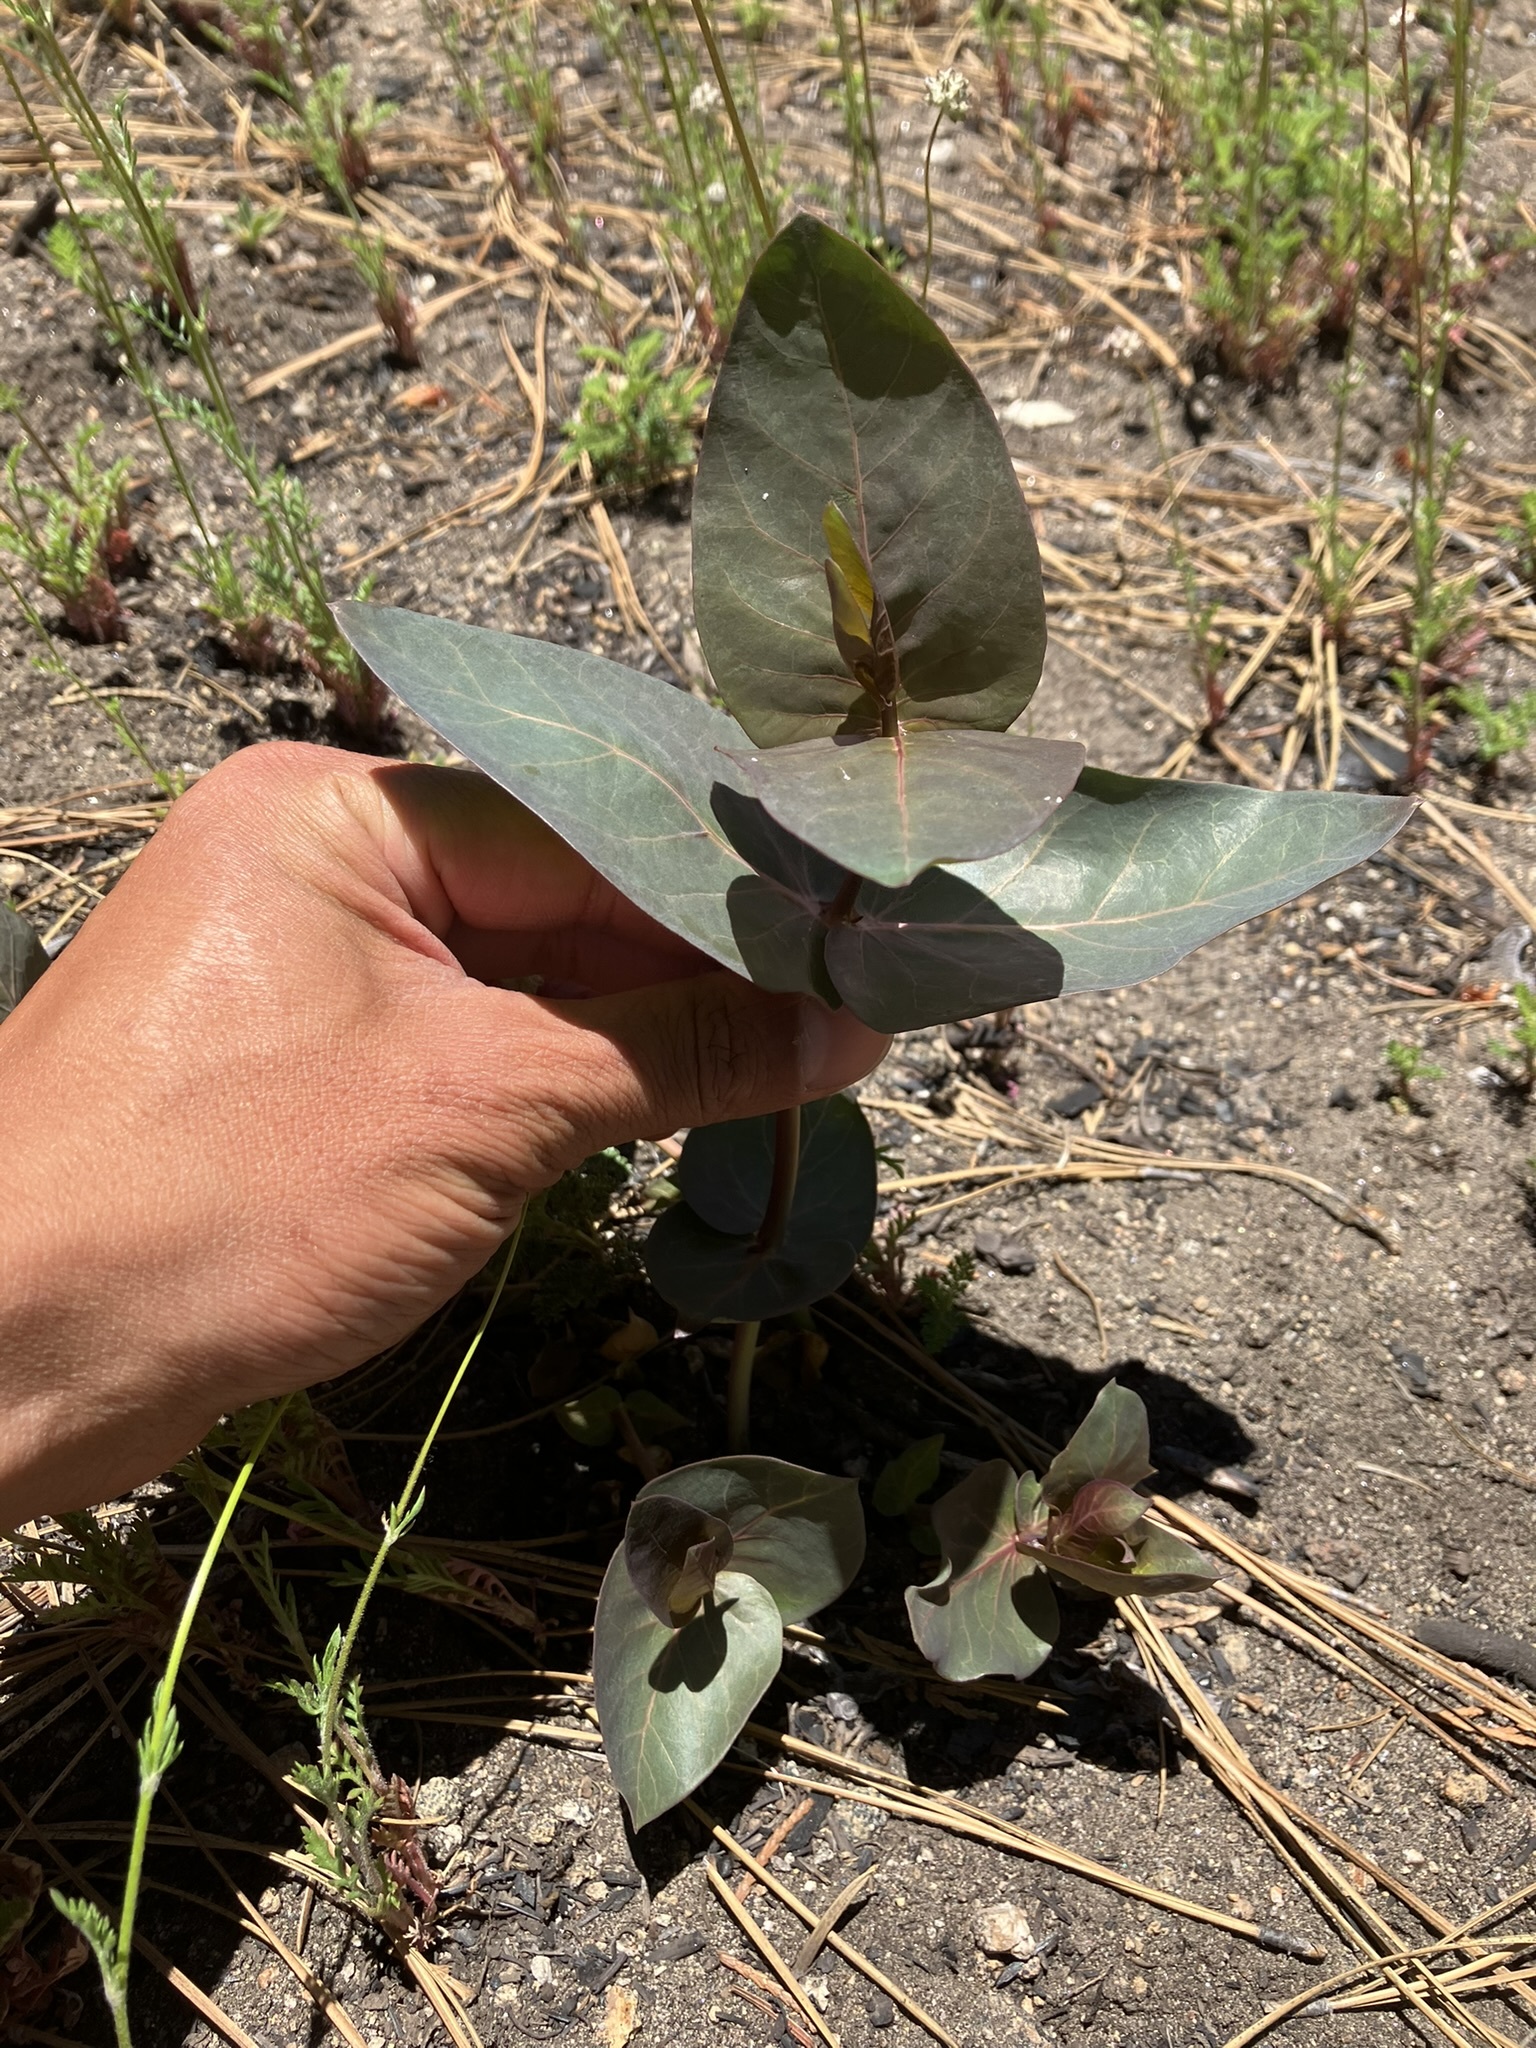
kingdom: Plantae
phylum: Tracheophyta
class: Magnoliopsida
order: Gentianales
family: Apocynaceae
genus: Asclepias
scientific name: Asclepias cordifolia
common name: Purple milkweed
